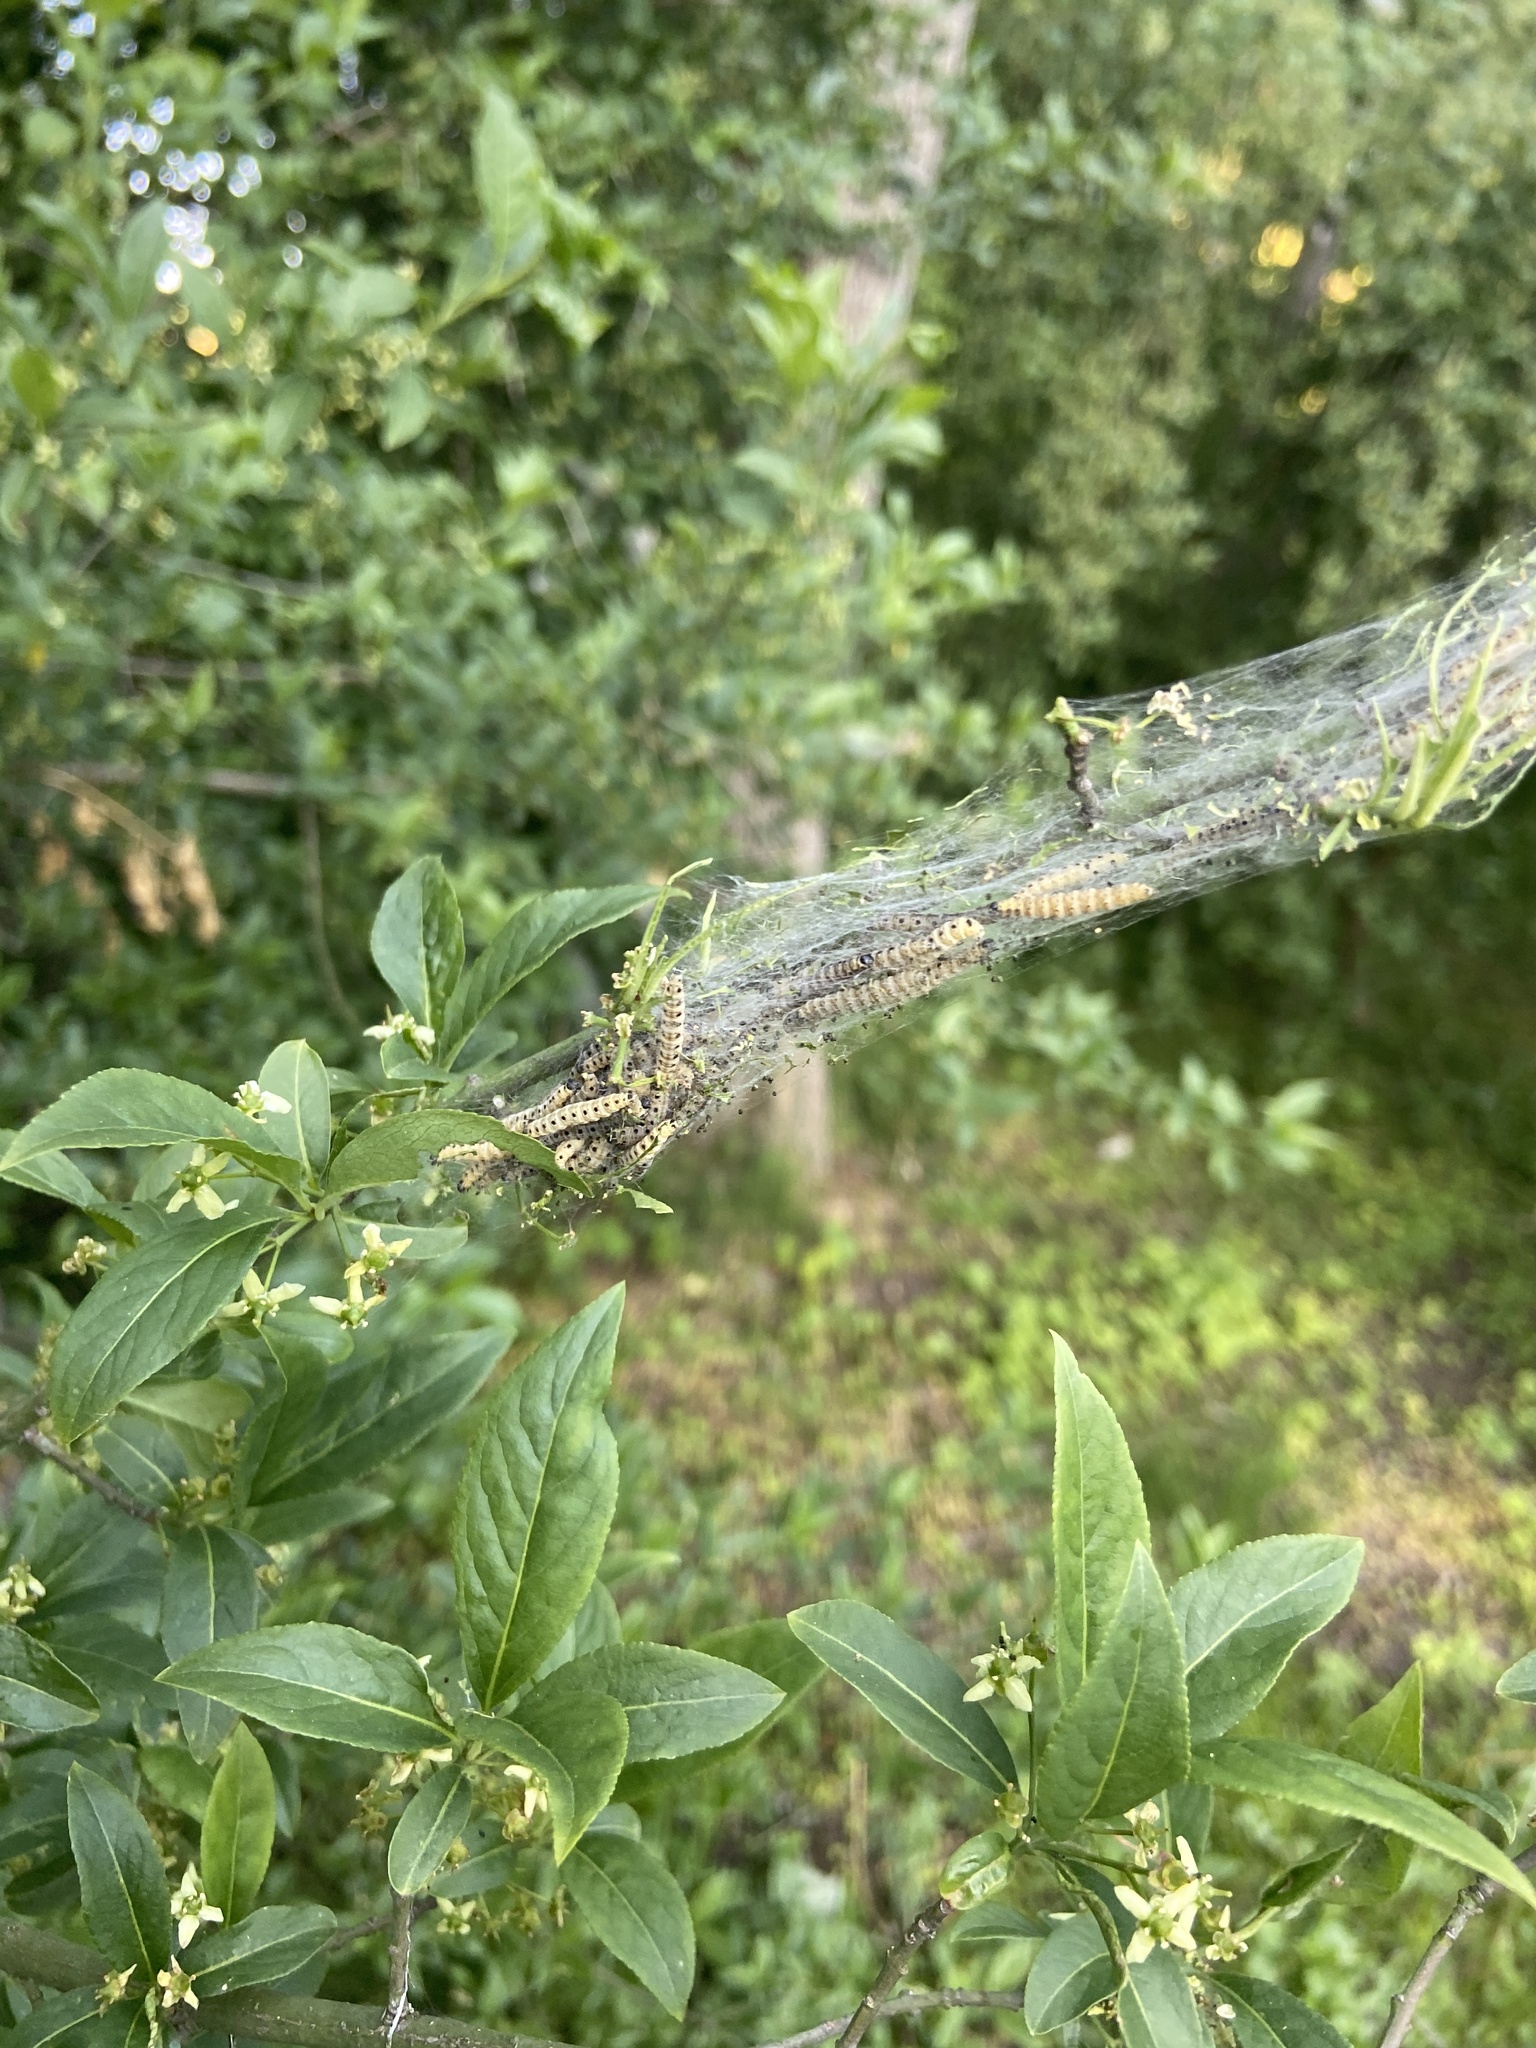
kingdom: Animalia
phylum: Arthropoda
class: Insecta
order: Lepidoptera
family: Yponomeutidae
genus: Yponomeuta
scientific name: Yponomeuta cagnagellus
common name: Spindle ermine
